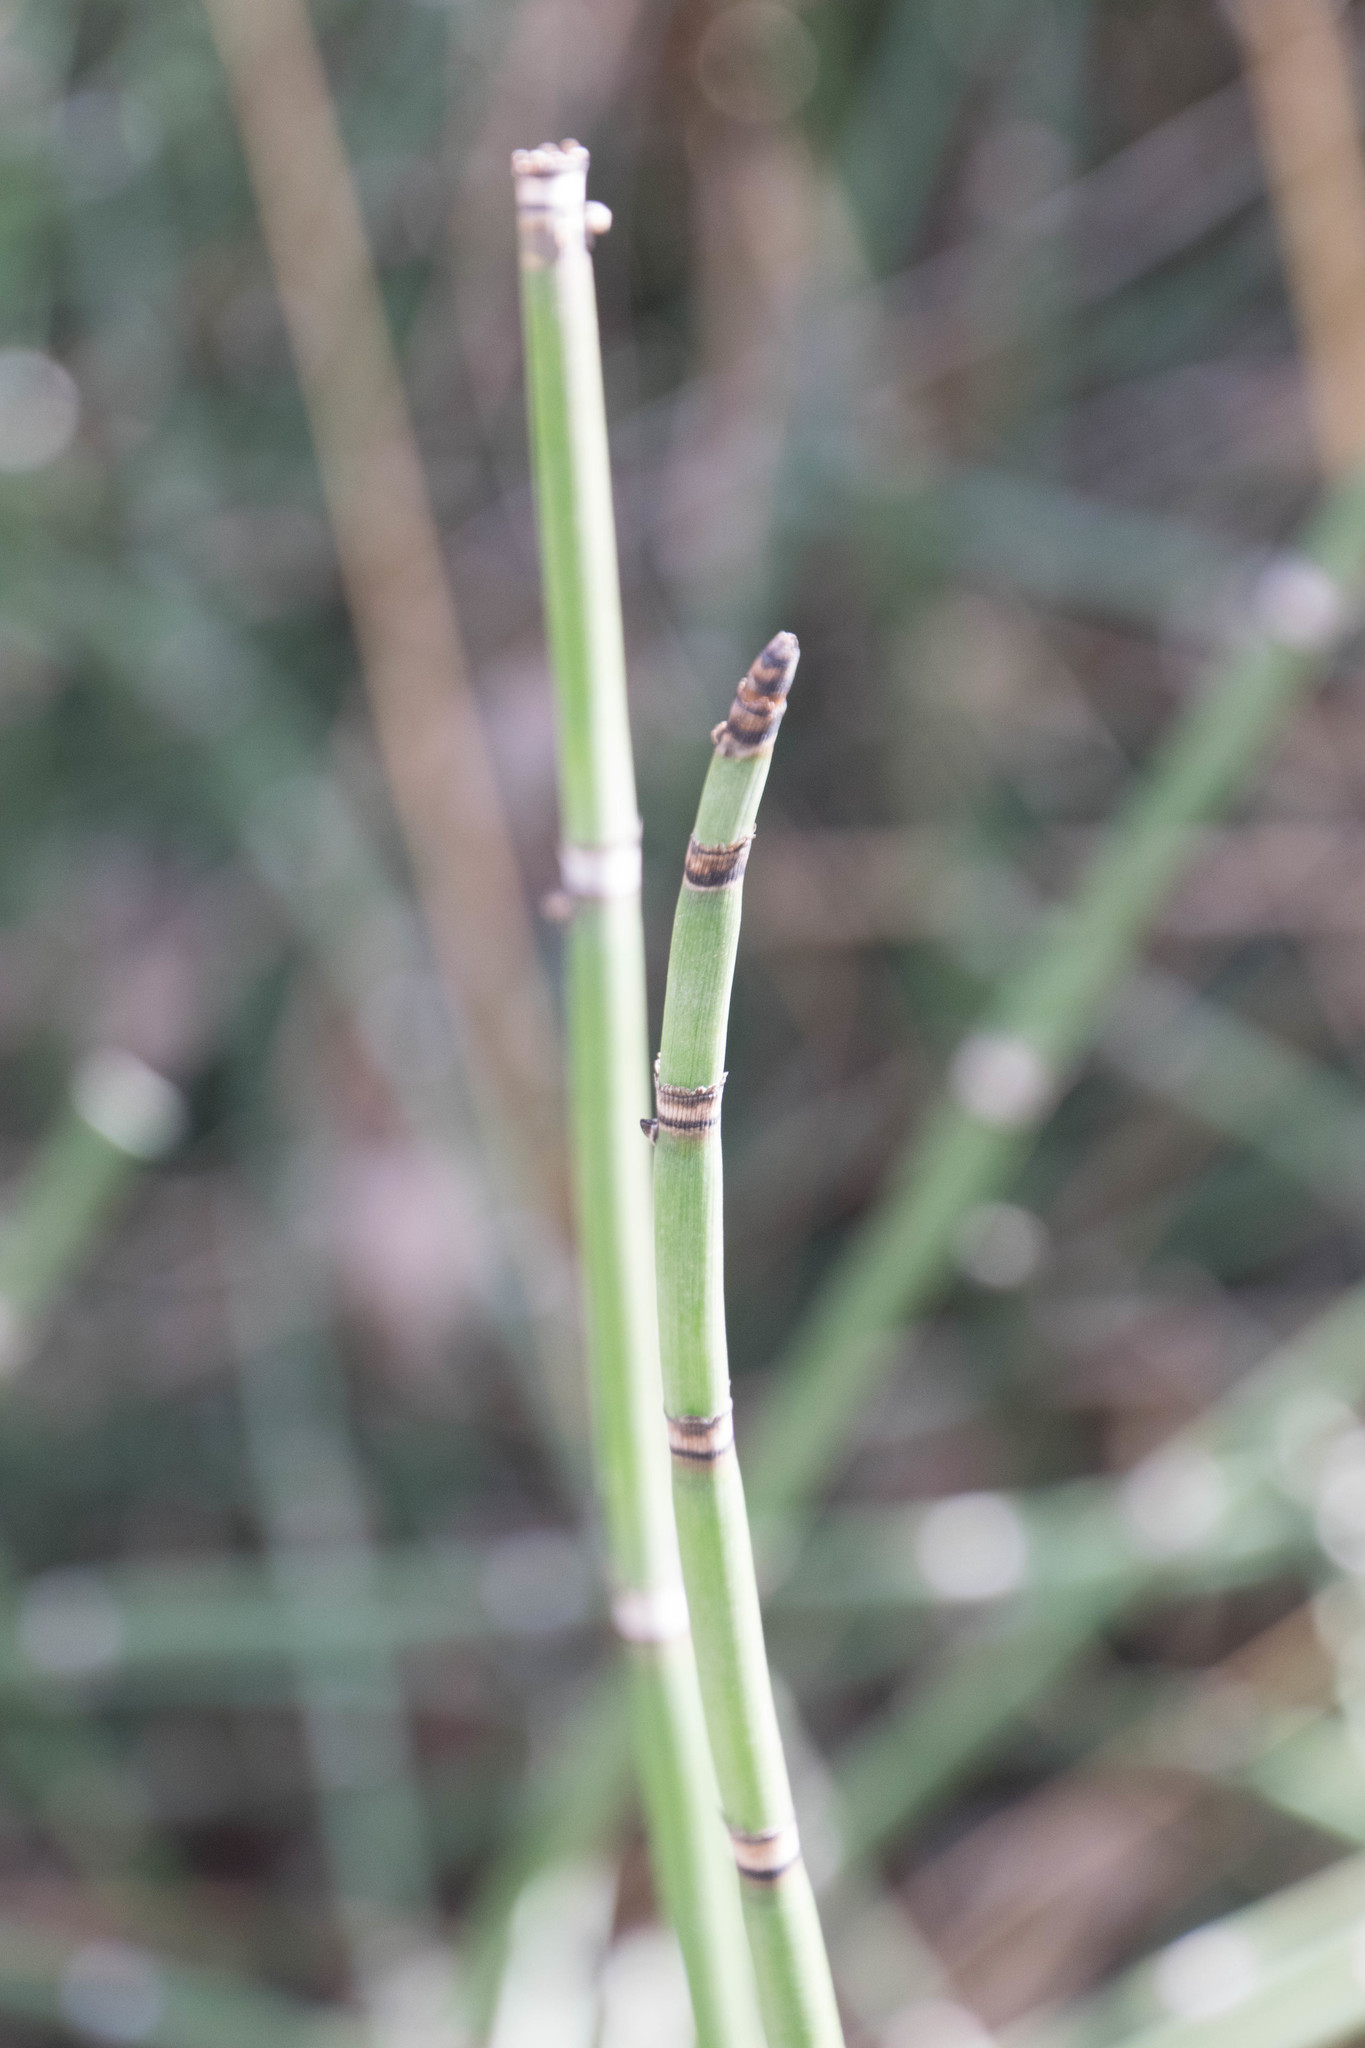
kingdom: Plantae
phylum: Tracheophyta
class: Polypodiopsida
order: Equisetales
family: Equisetaceae
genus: Equisetum
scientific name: Equisetum hyemale
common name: Rough horsetail
